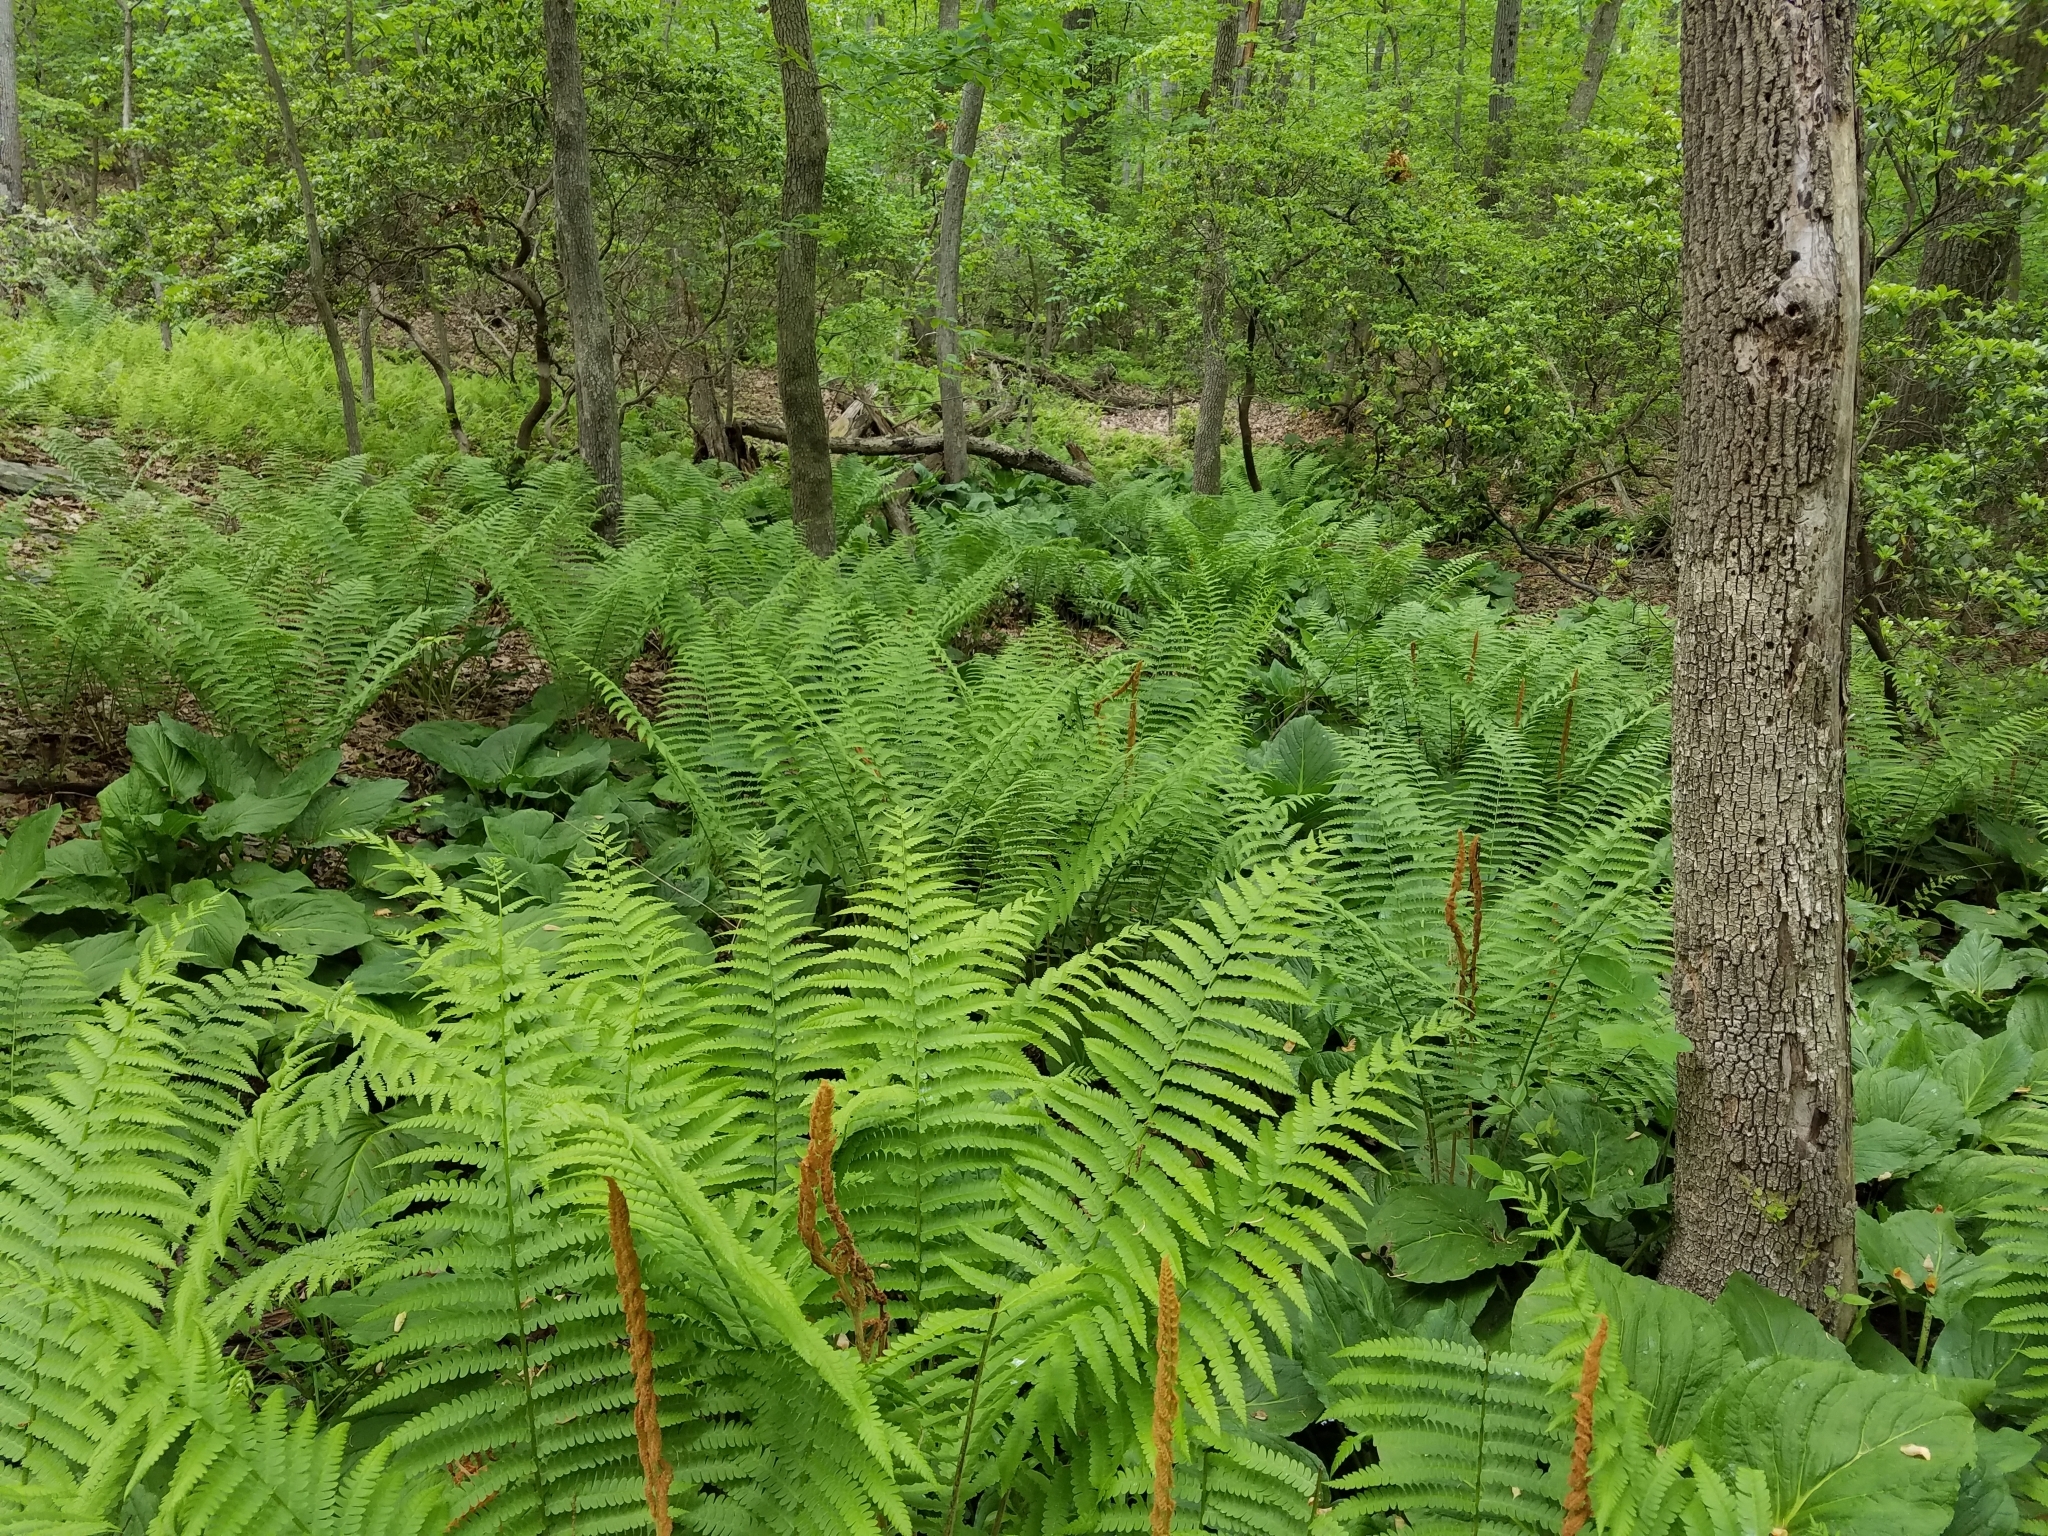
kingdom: Plantae
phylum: Tracheophyta
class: Polypodiopsida
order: Osmundales
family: Osmundaceae
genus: Osmundastrum
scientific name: Osmundastrum cinnamomeum
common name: Cinnamon fern
